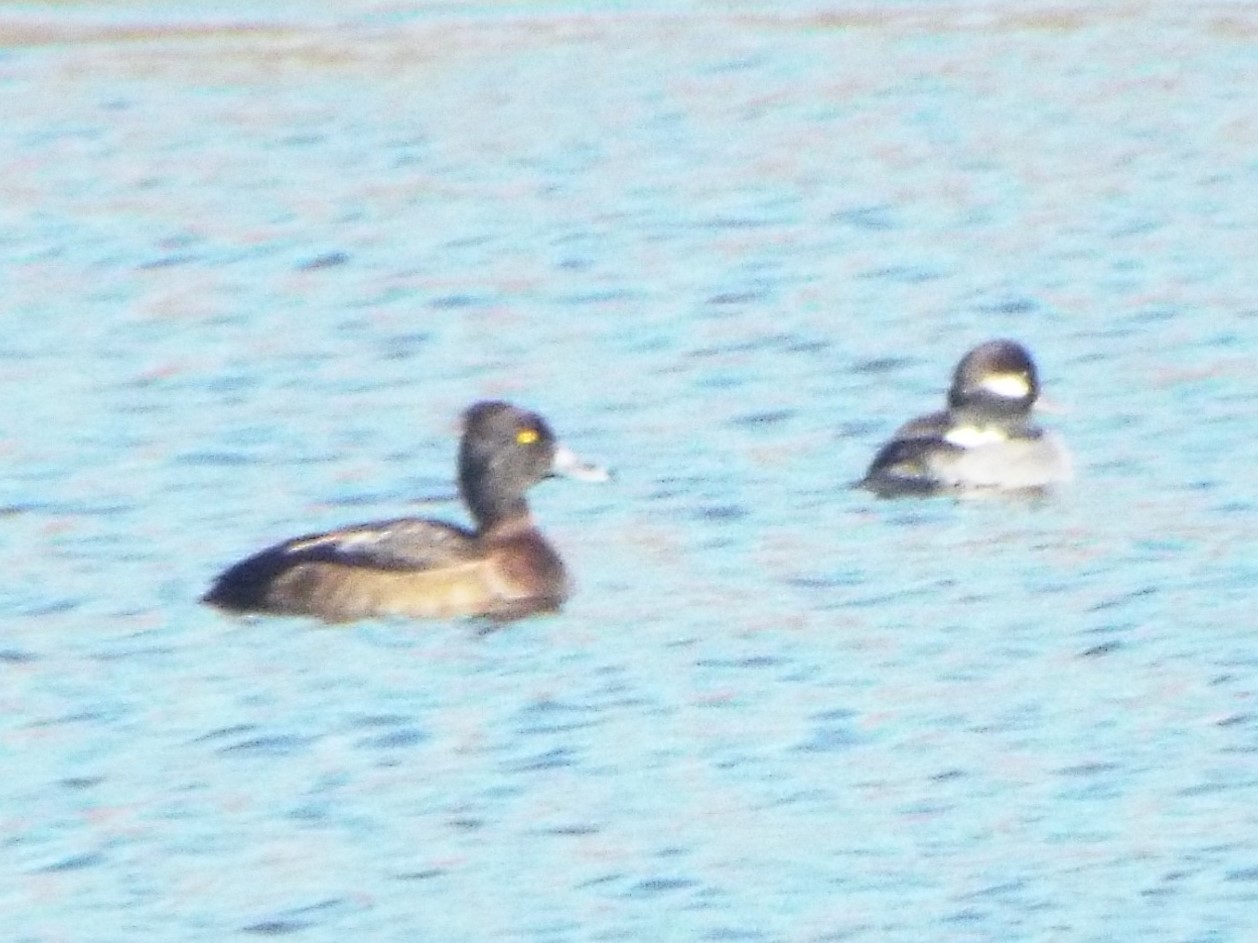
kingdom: Animalia
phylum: Chordata
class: Aves
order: Anseriformes
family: Anatidae
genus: Aythya
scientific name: Aythya fuligula
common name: Tufted duck
